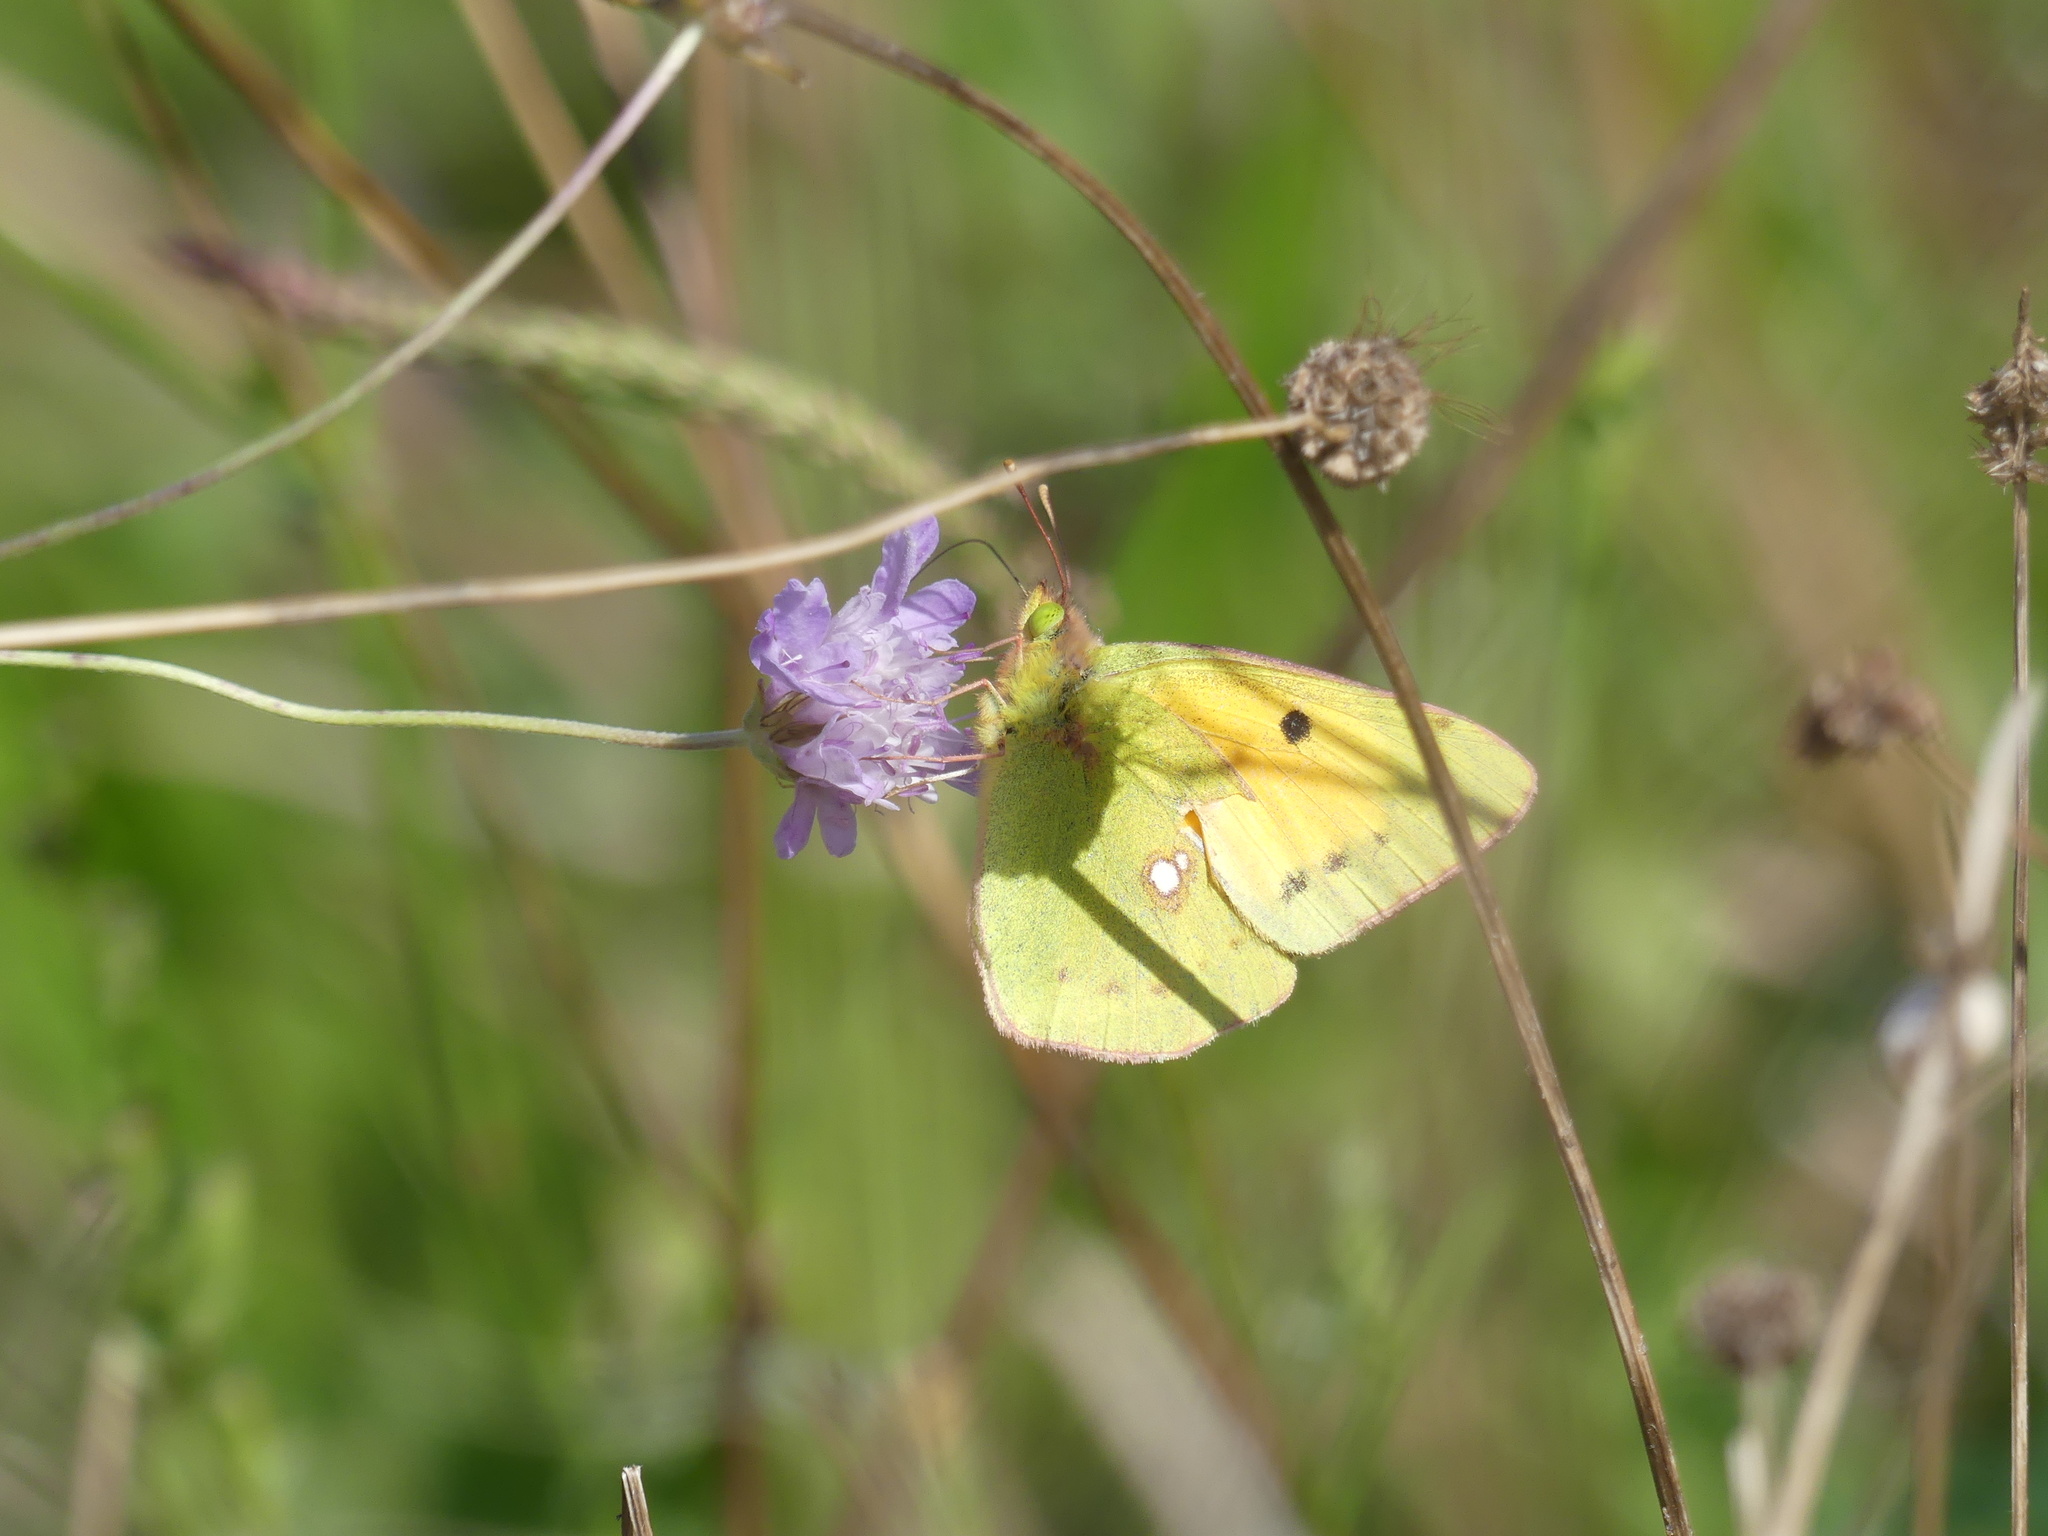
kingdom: Animalia
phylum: Arthropoda
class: Insecta
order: Lepidoptera
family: Pieridae
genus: Colias
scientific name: Colias croceus
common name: Clouded yellow
